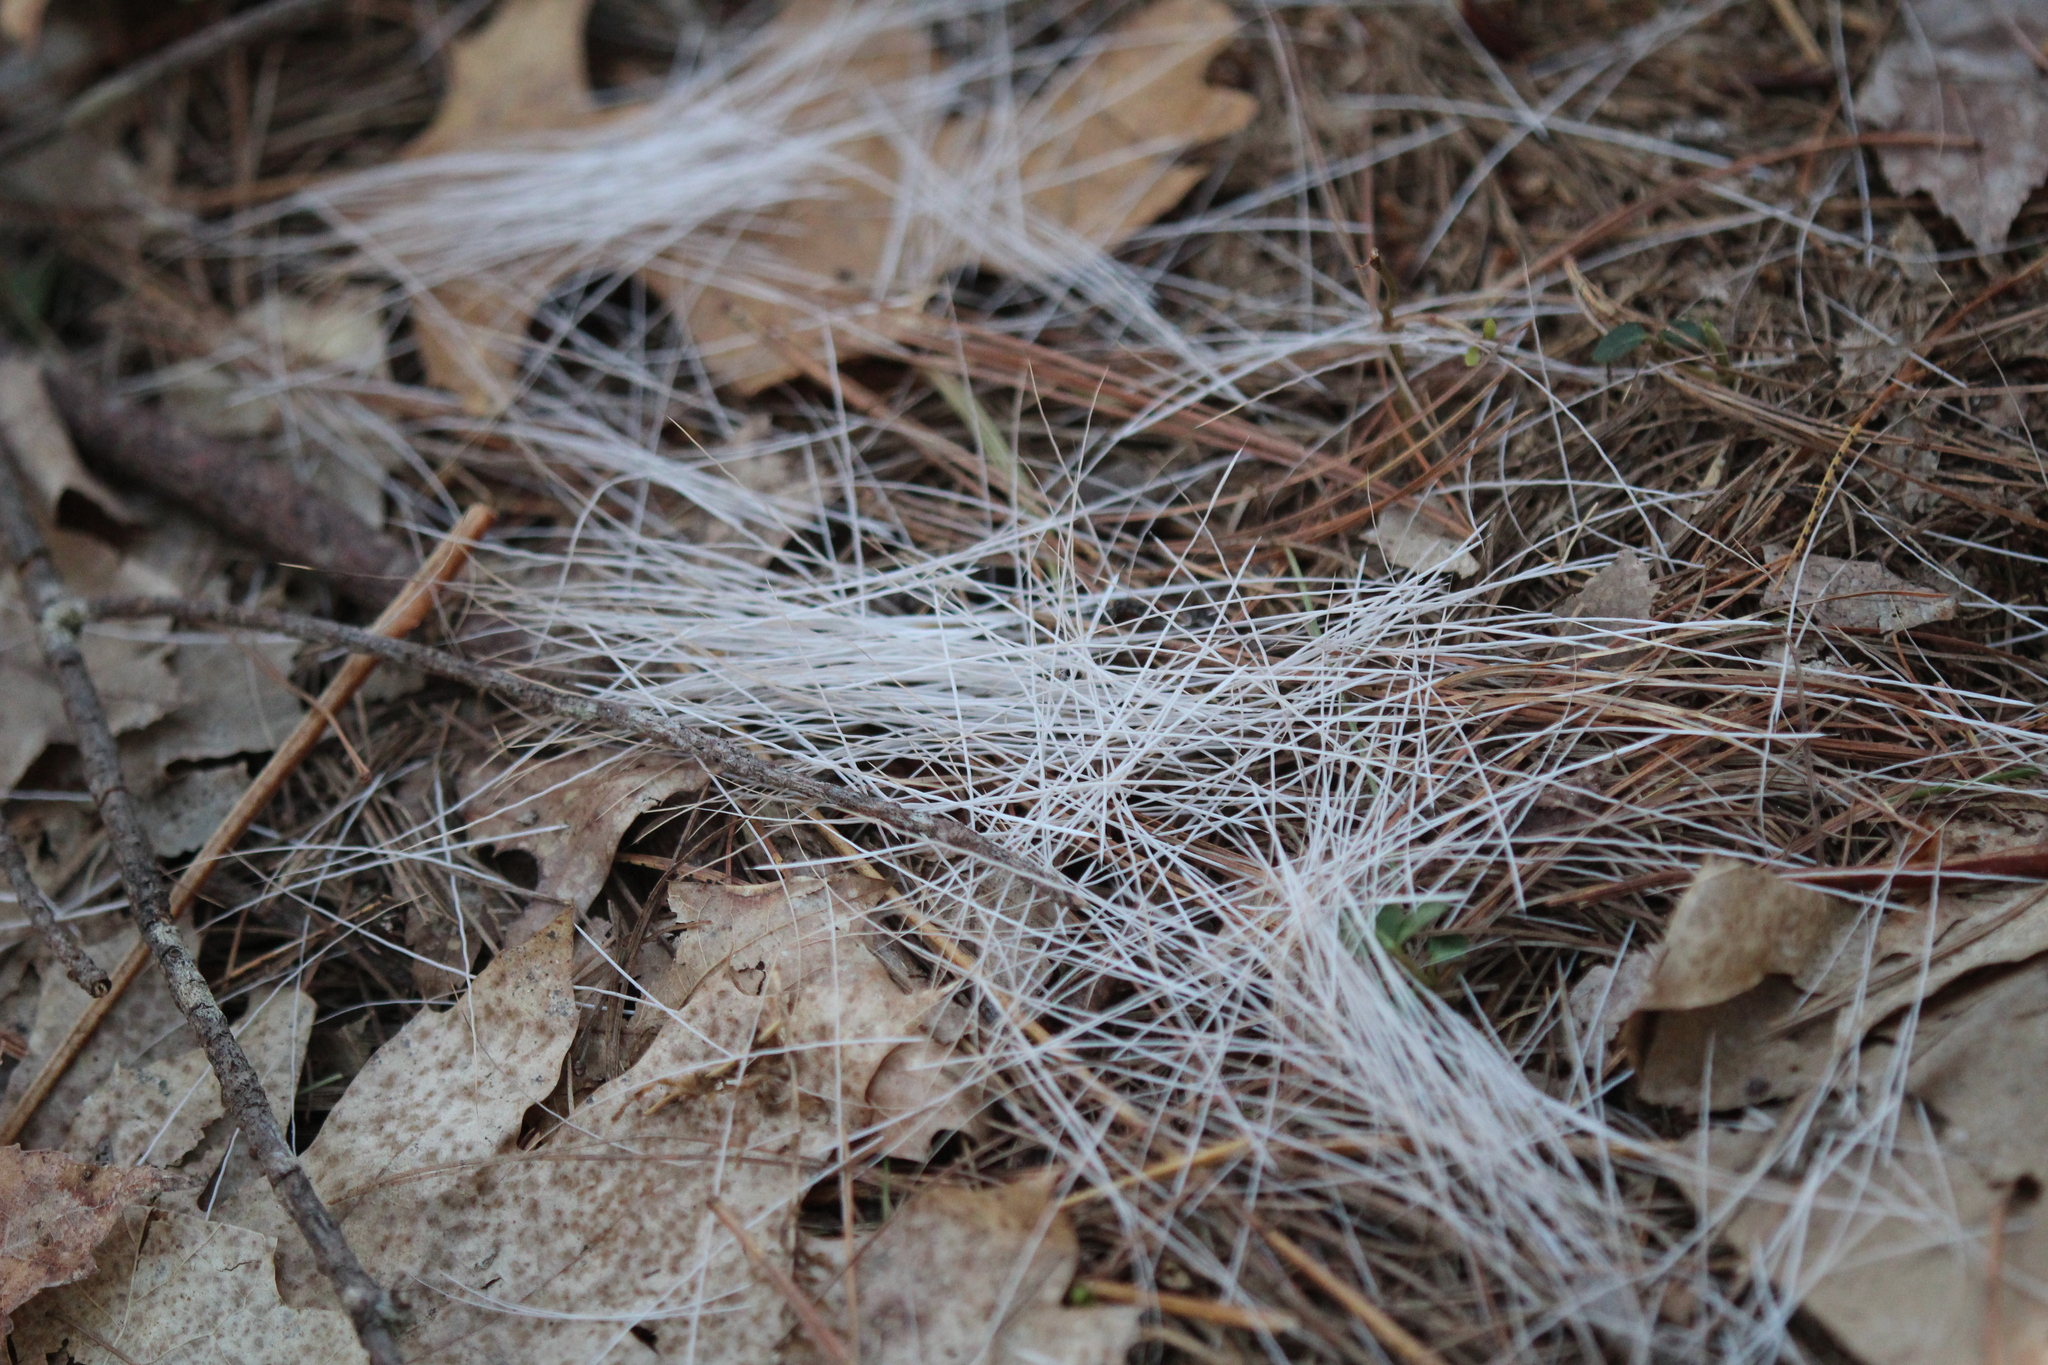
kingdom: Animalia
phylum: Chordata
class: Mammalia
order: Artiodactyla
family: Cervidae
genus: Odocoileus
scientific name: Odocoileus virginianus
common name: White-tailed deer
